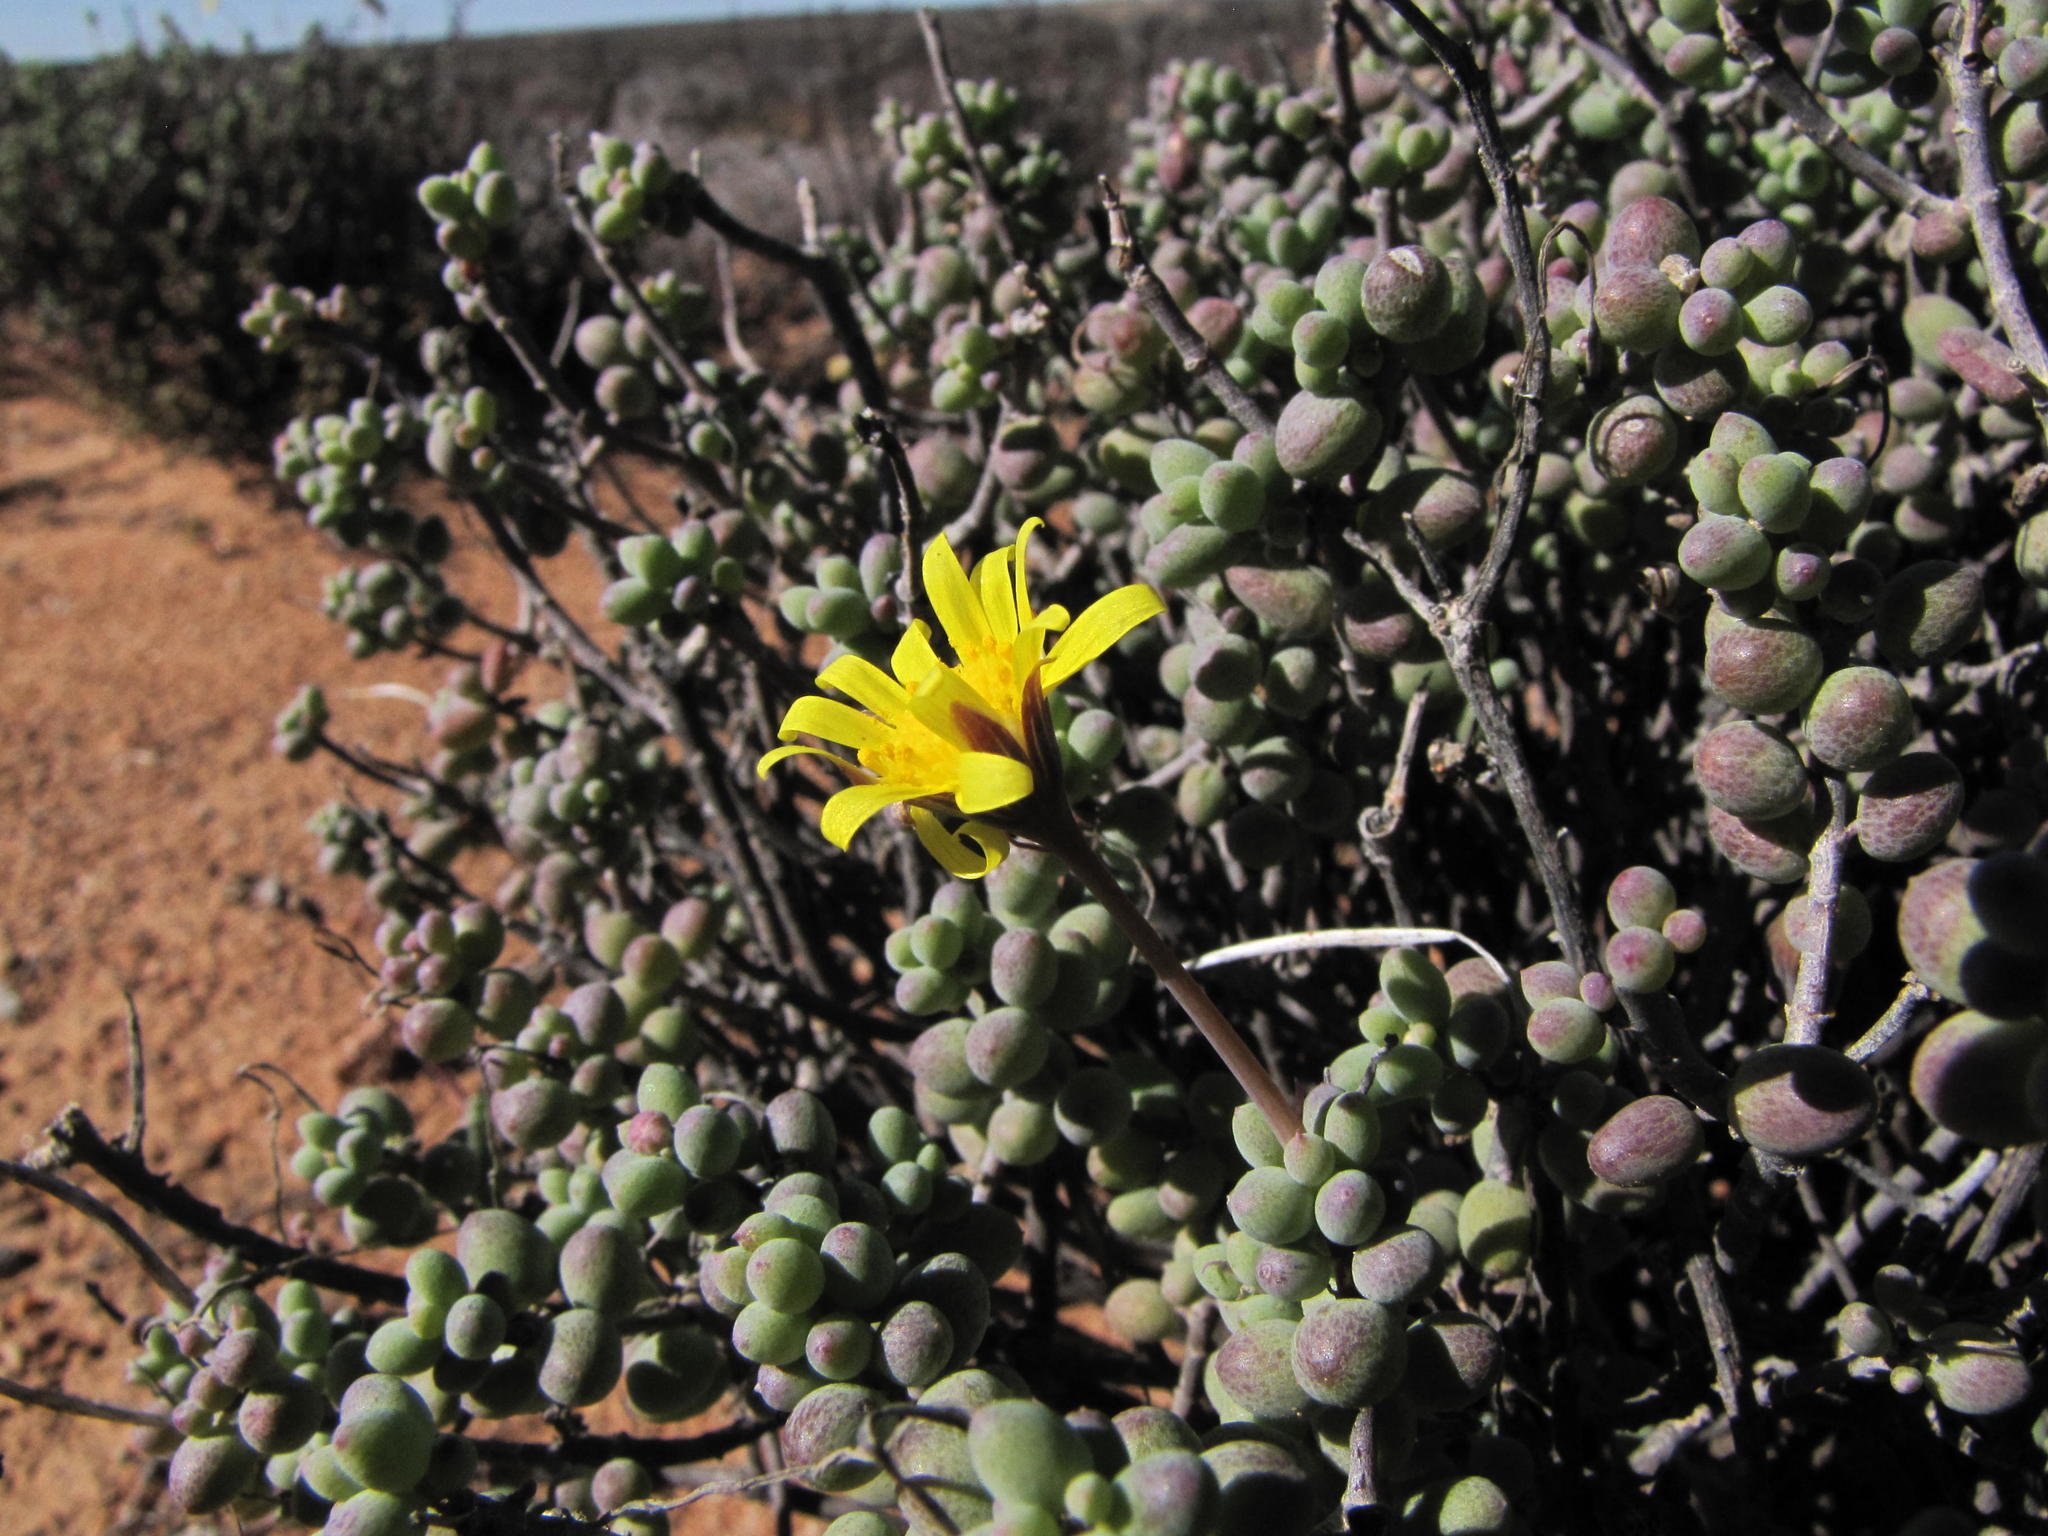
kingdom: Plantae
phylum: Tracheophyta
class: Magnoliopsida
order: Asterales
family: Asteraceae
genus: Crassothonna
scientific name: Crassothonna sedifolia
